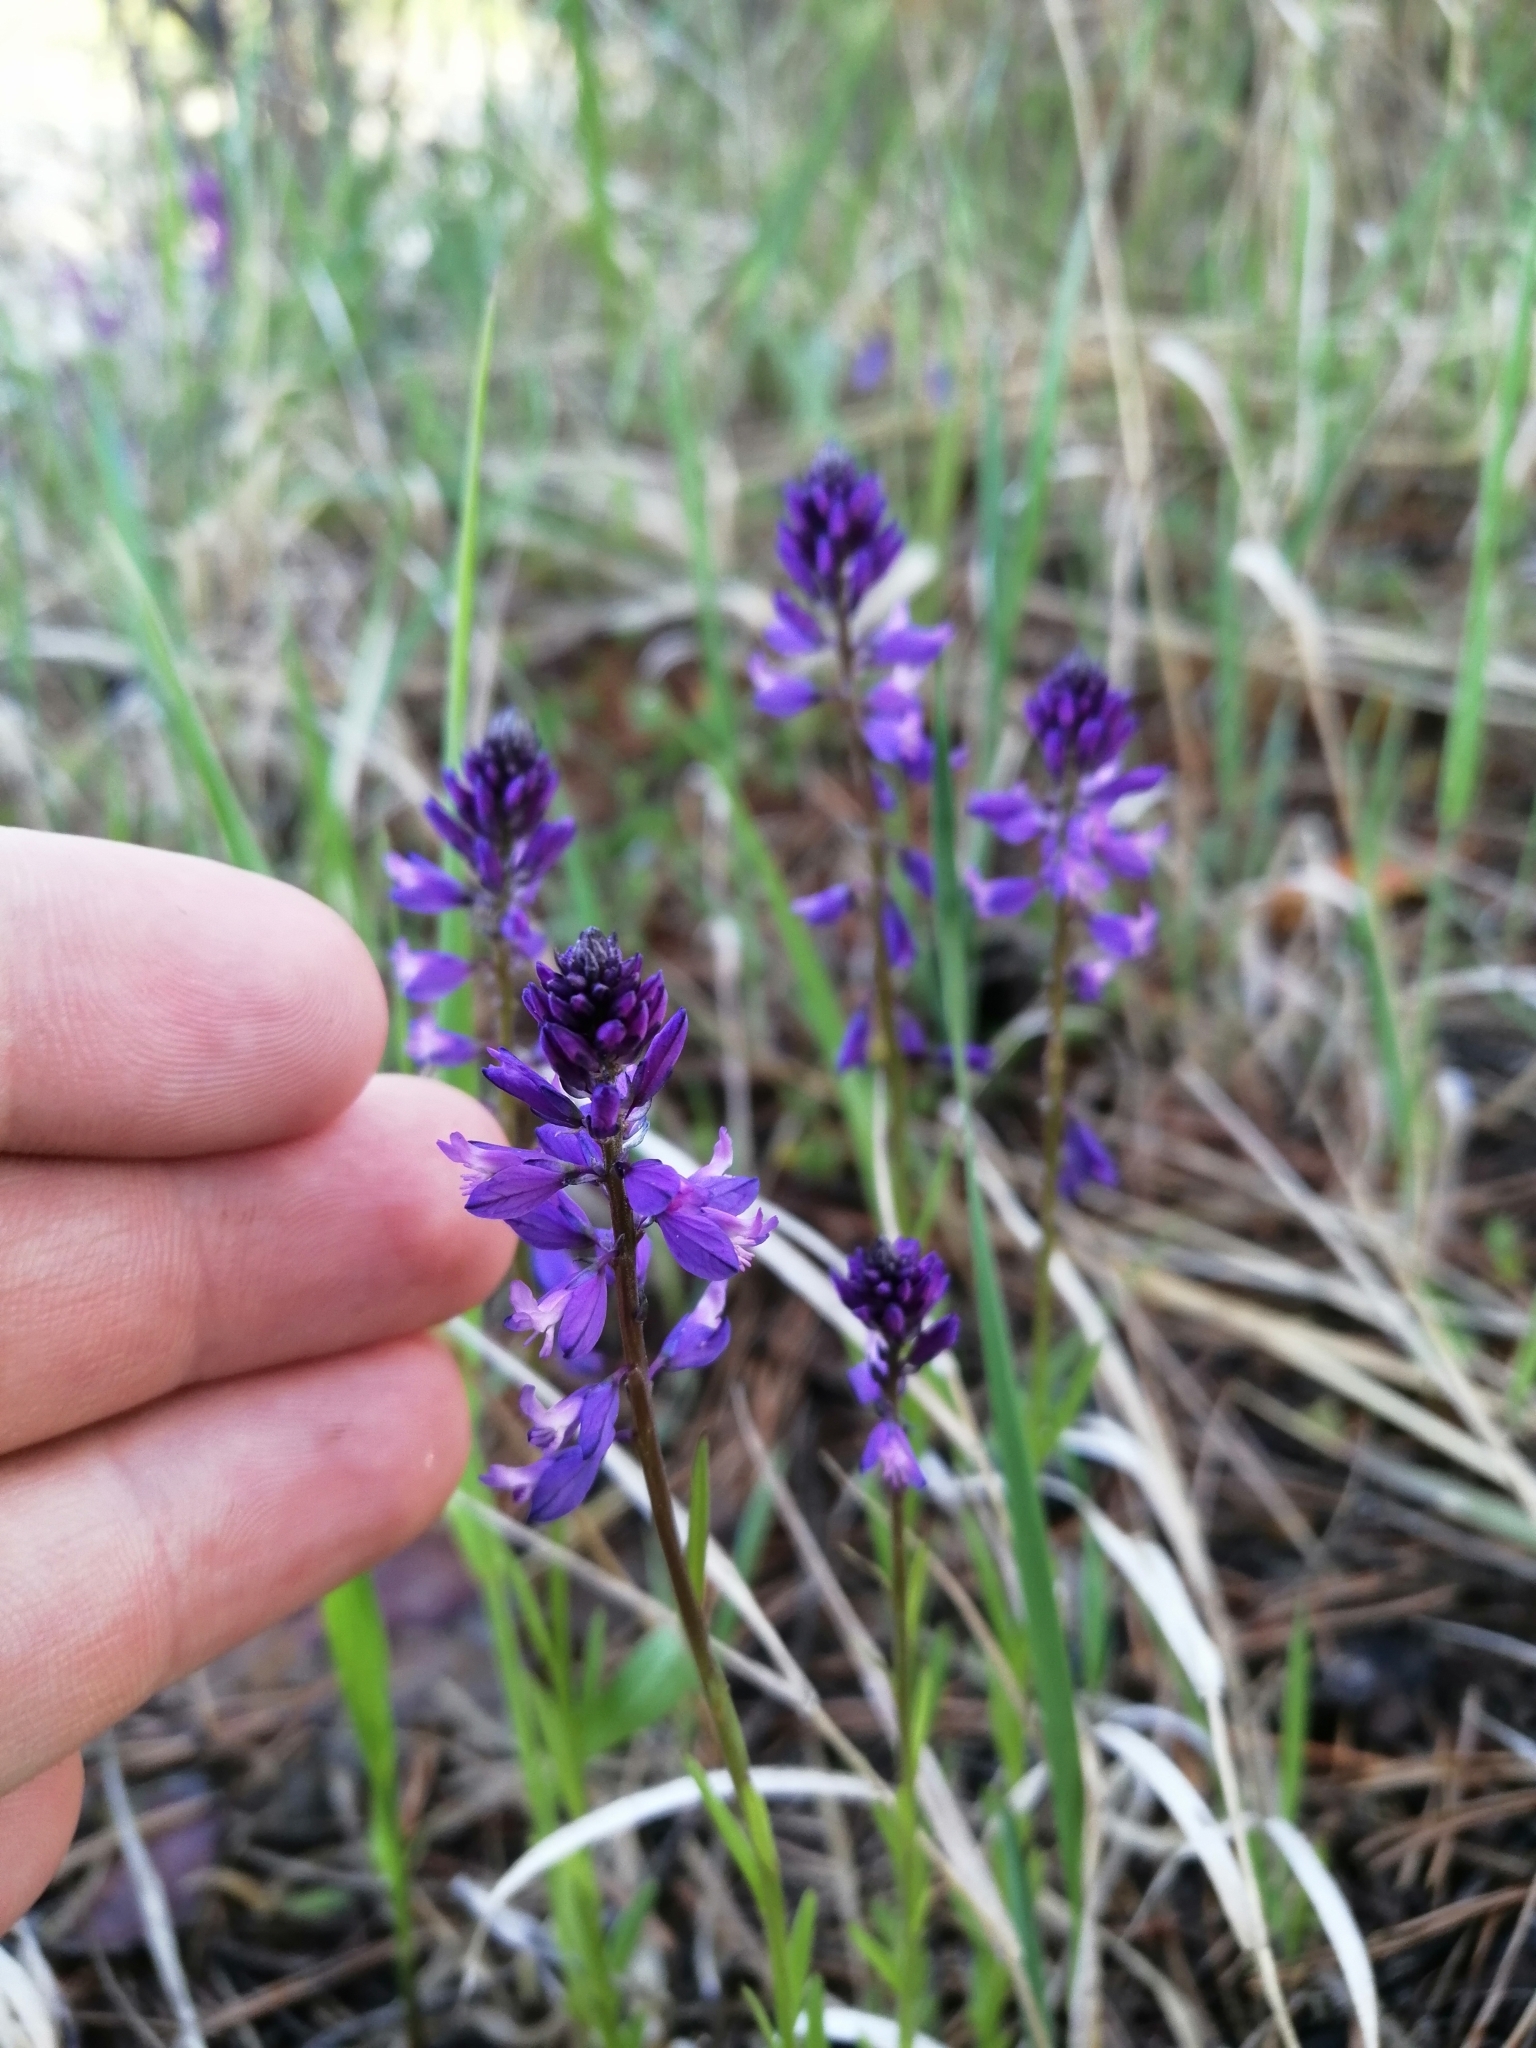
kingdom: Plantae
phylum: Tracheophyta
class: Magnoliopsida
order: Fabales
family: Polygalaceae
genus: Polygala
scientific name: Polygala comosa
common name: Tufted milkwort
